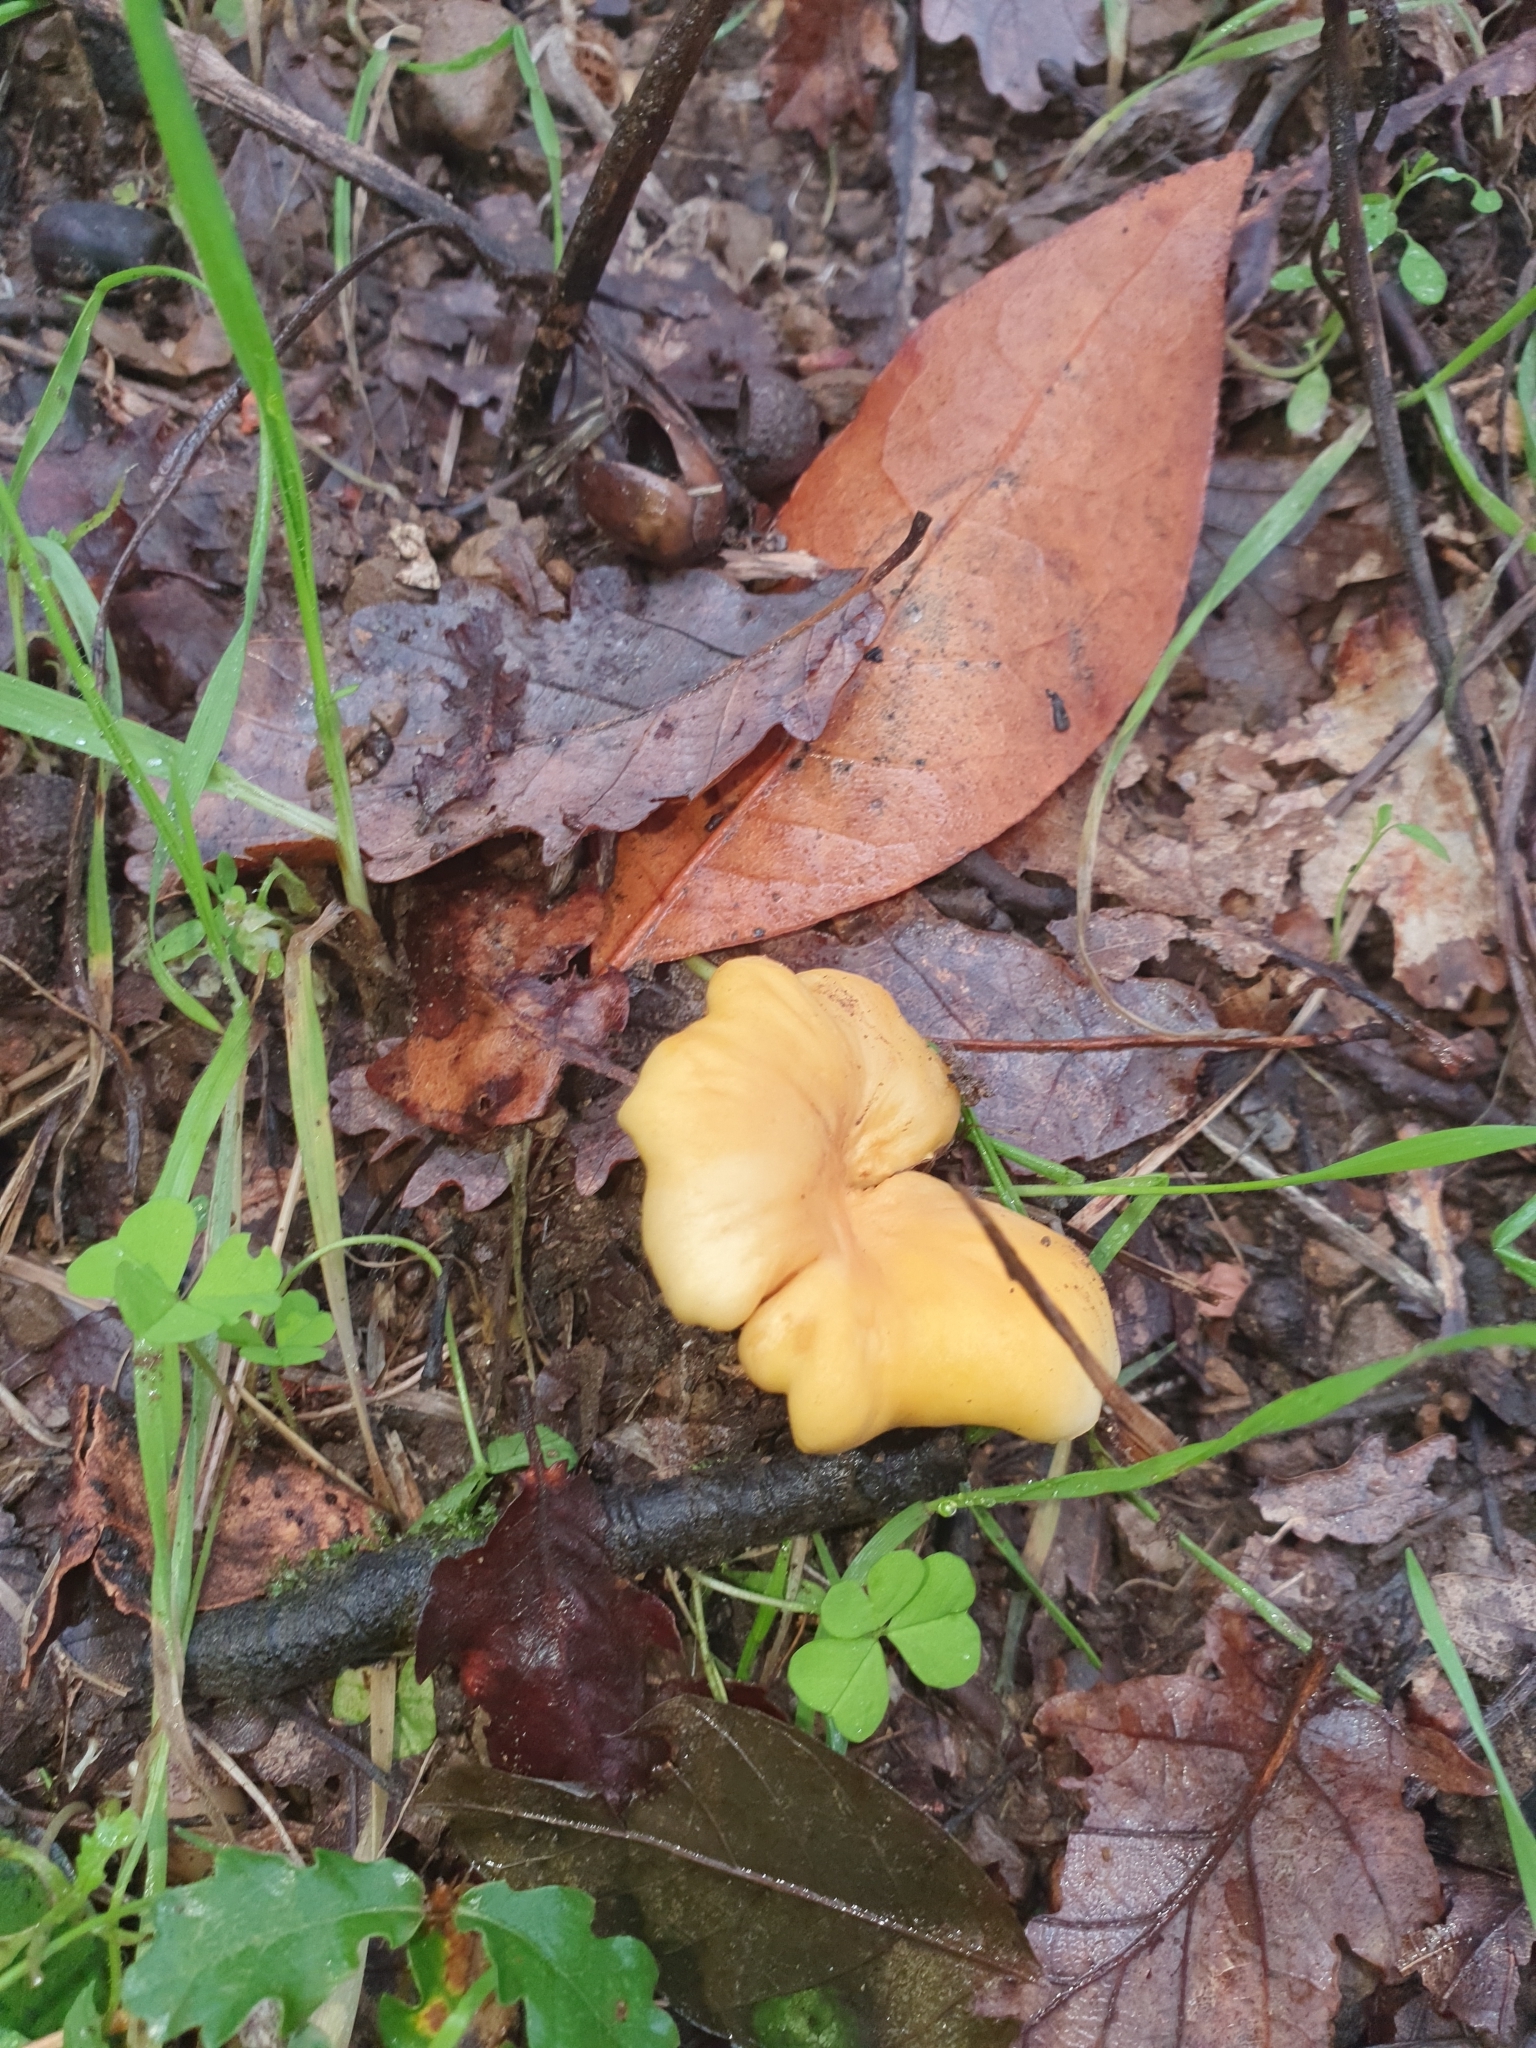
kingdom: Fungi
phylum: Basidiomycota
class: Agaricomycetes
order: Cantharellales
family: Hydnaceae
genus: Cantharellus
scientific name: Cantharellus cibarius
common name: Chanterelle
